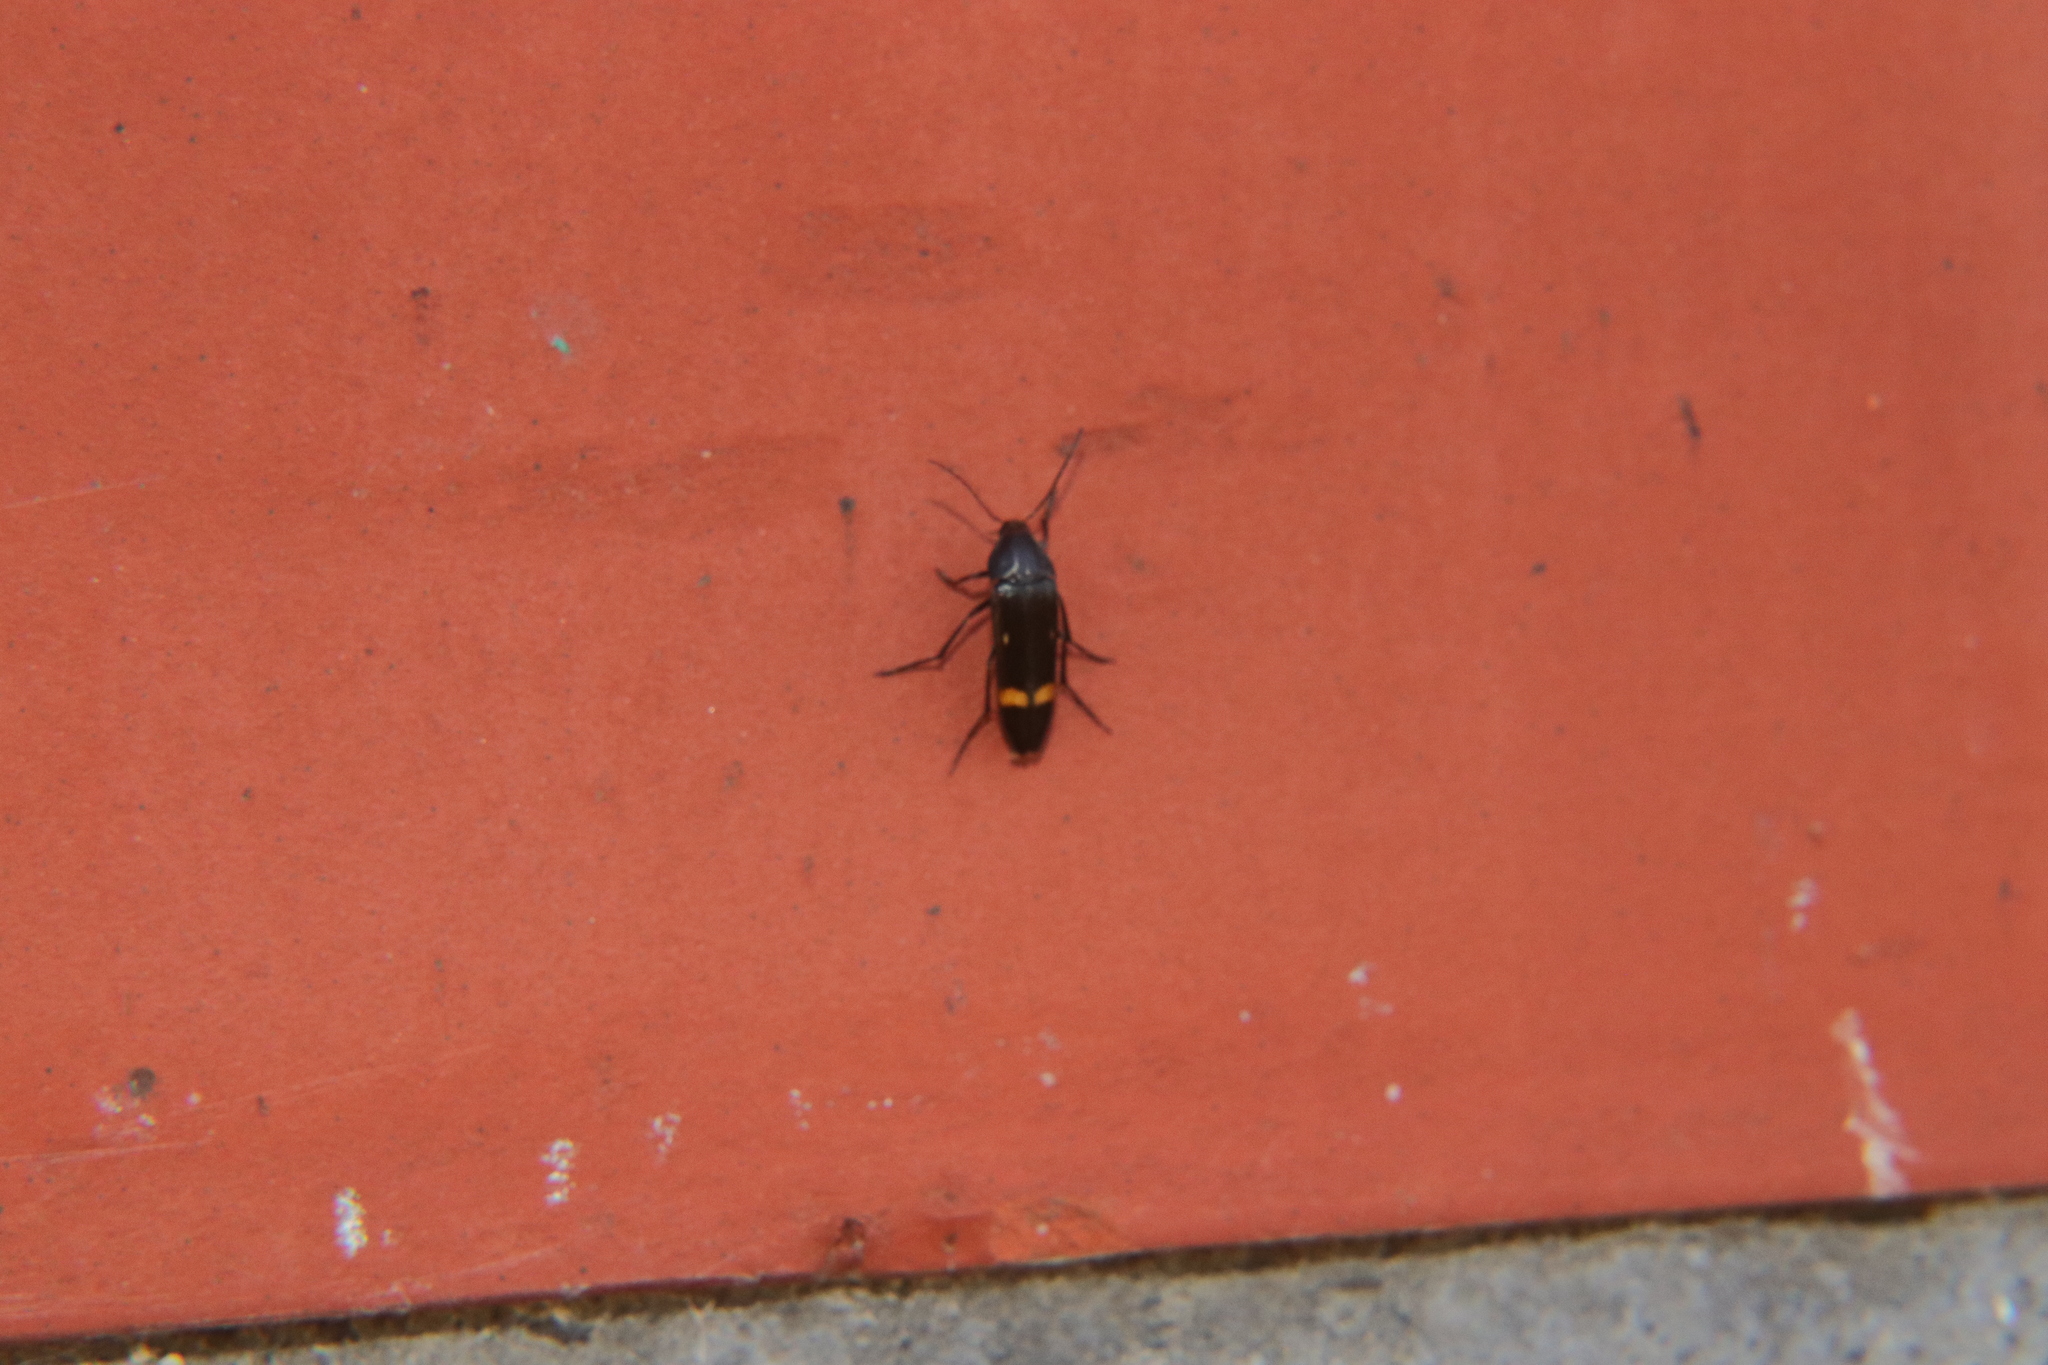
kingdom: Animalia
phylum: Arthropoda
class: Insecta
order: Coleoptera
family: Melandryidae
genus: Ctenoplectron
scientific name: Ctenoplectron
